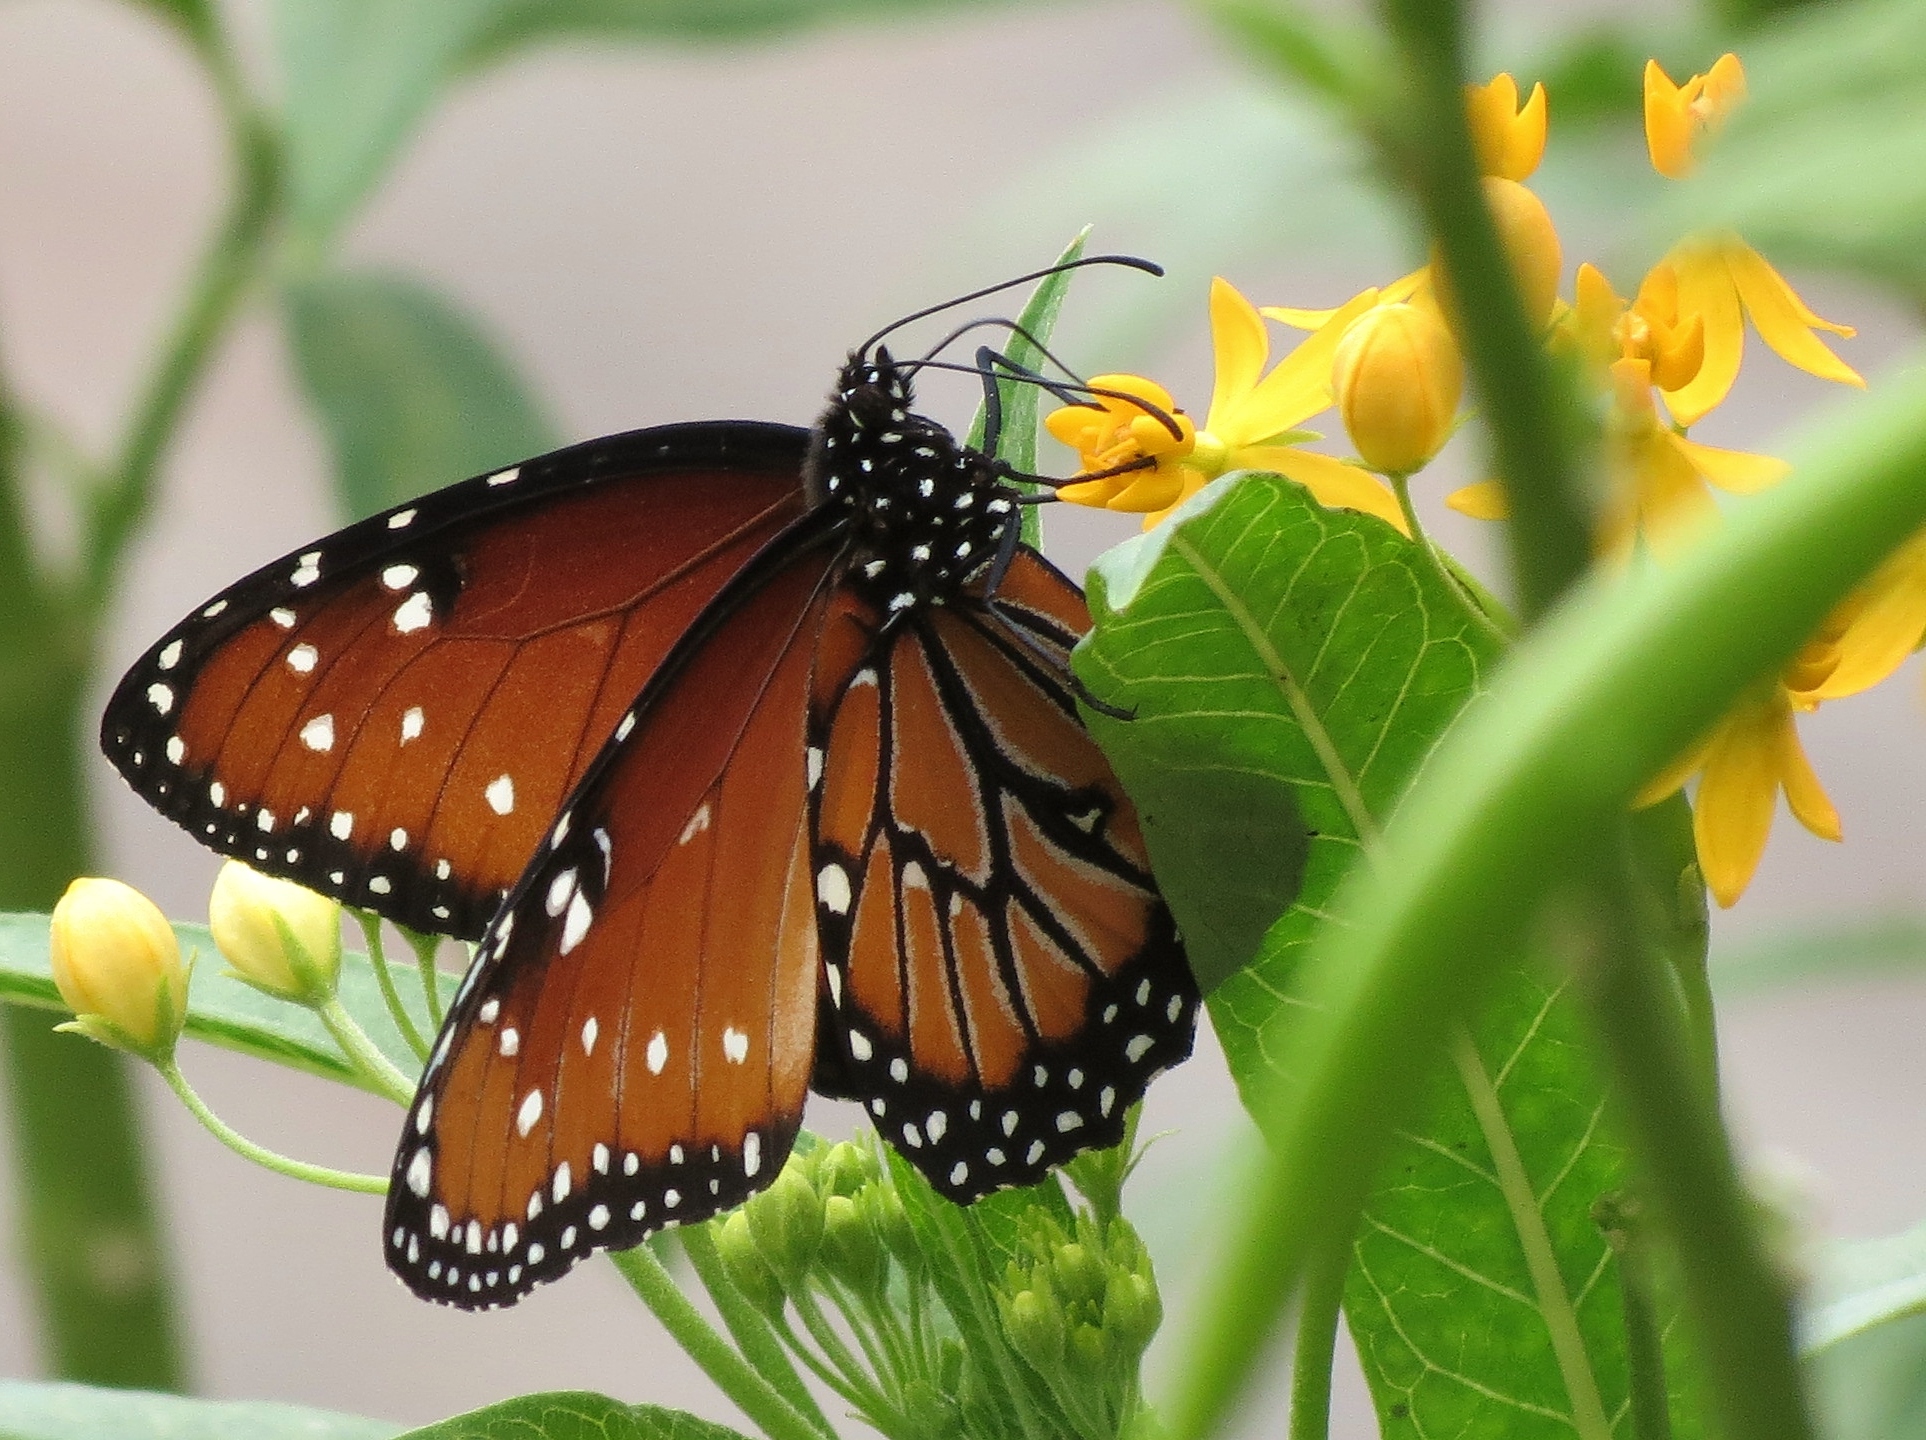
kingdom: Animalia
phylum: Arthropoda
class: Insecta
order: Lepidoptera
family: Nymphalidae
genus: Danaus
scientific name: Danaus gilippus
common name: Queen
